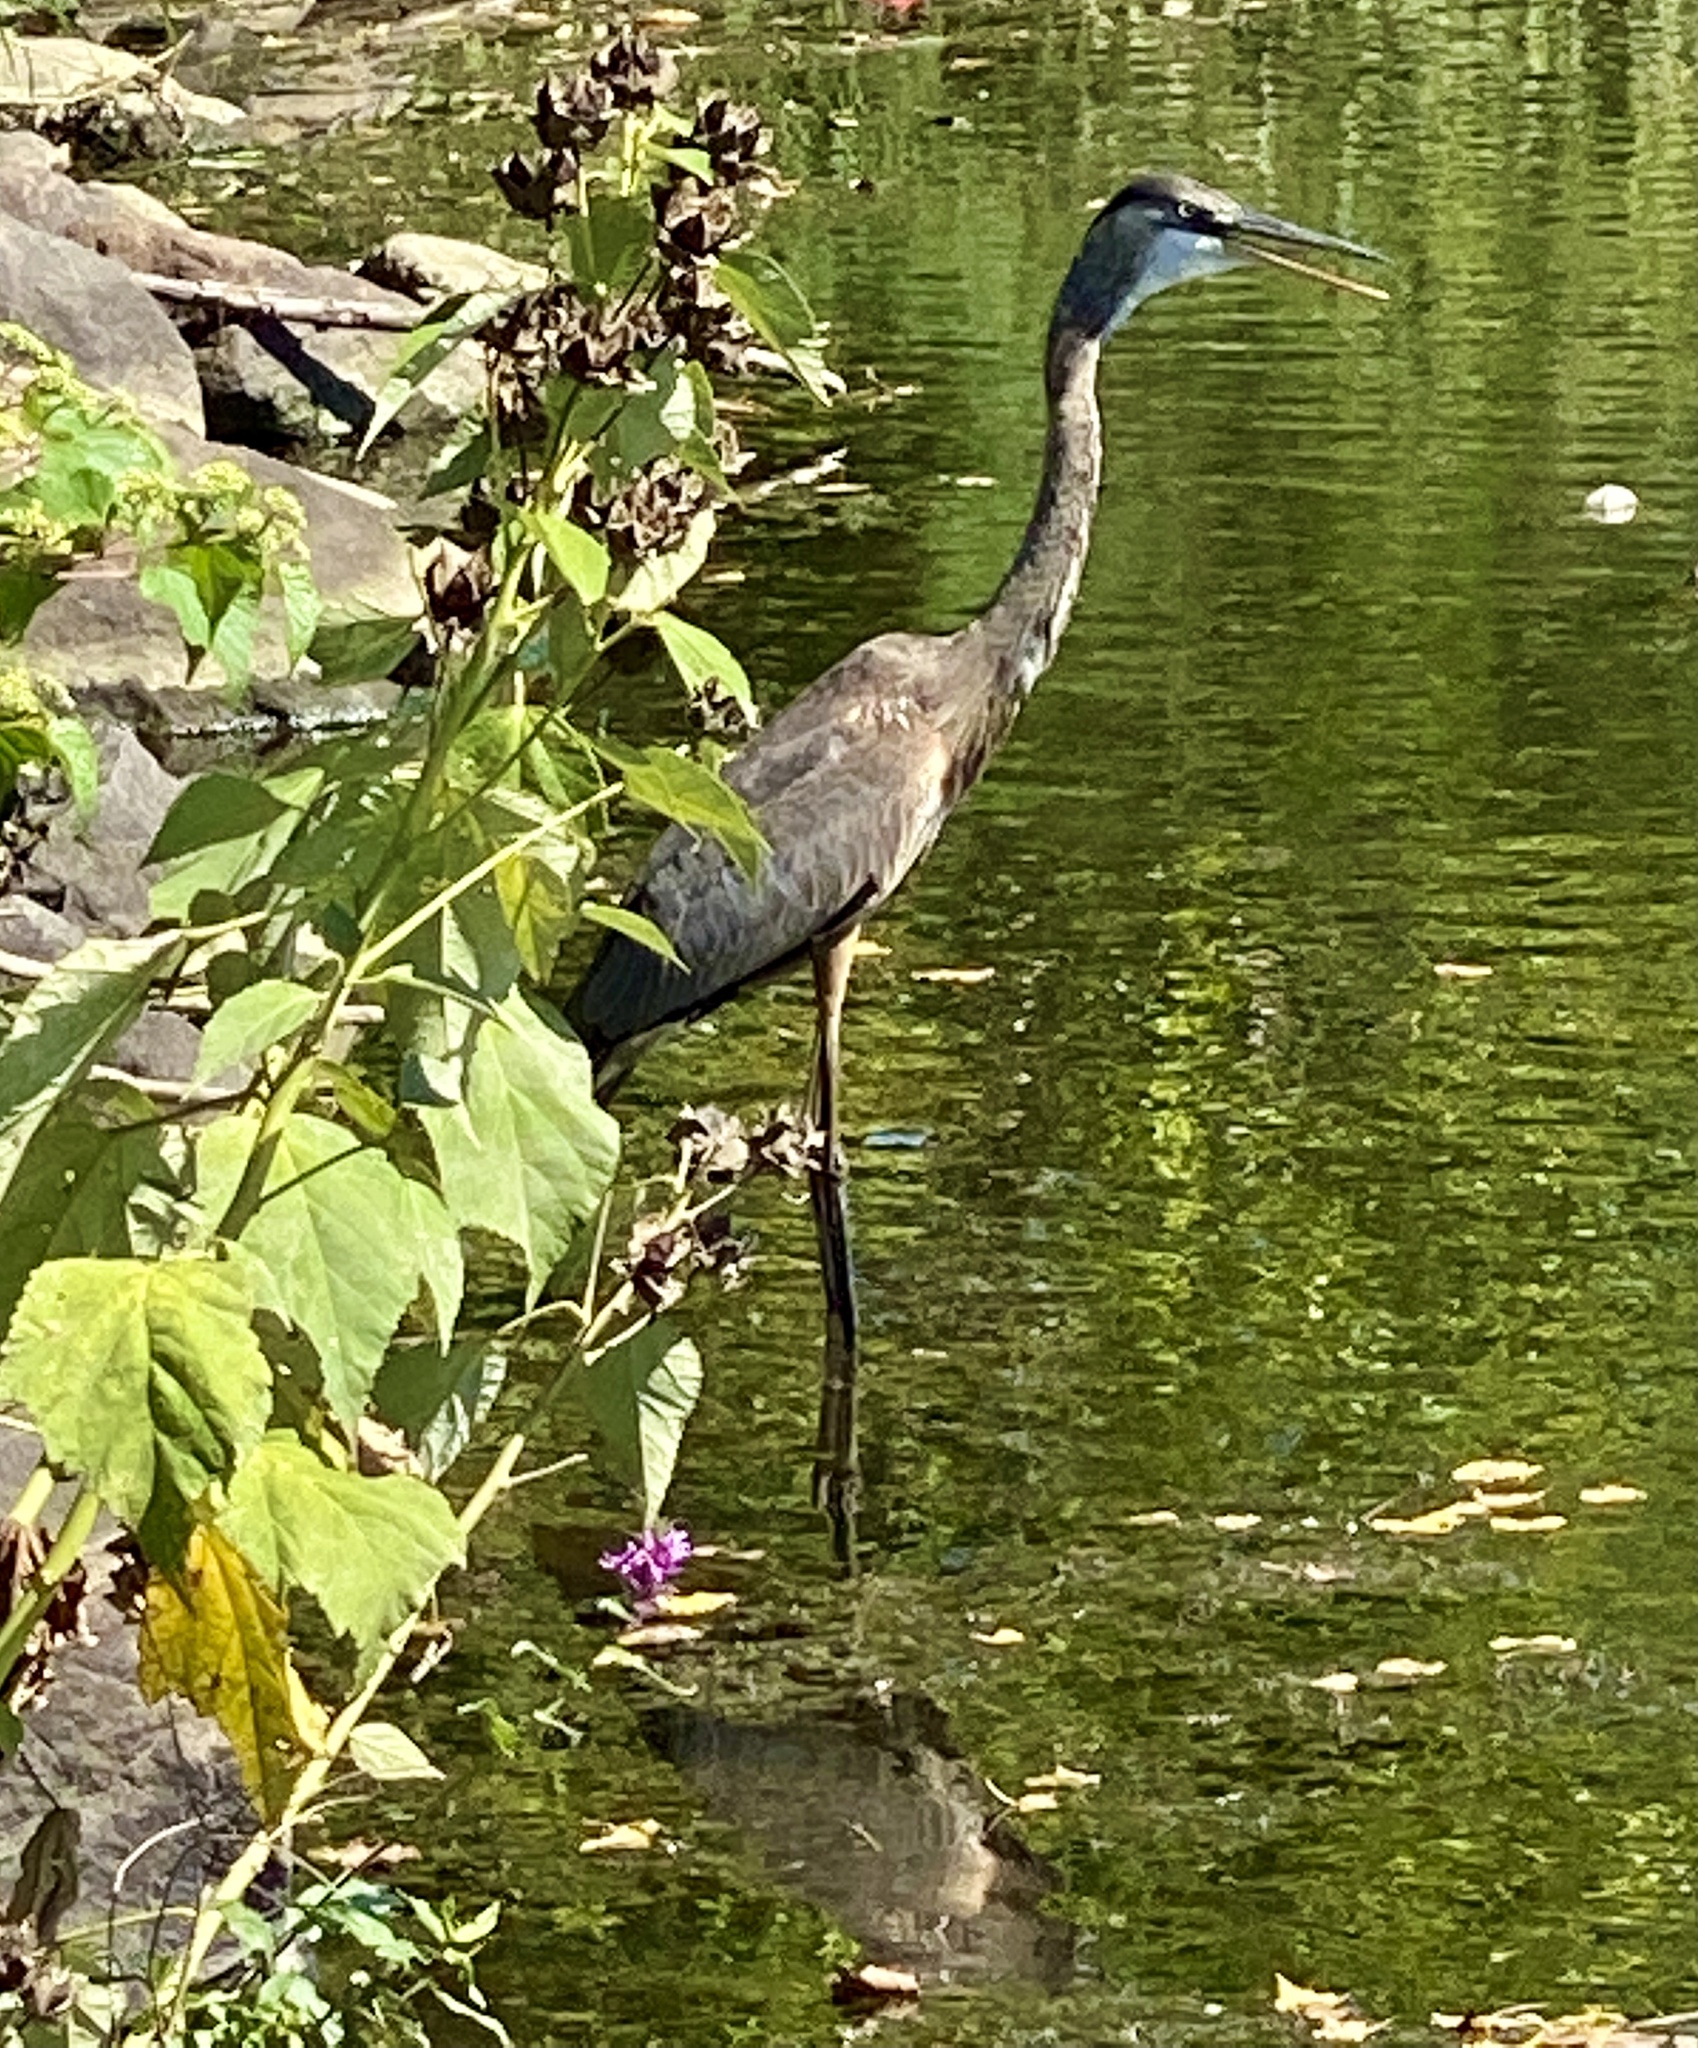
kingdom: Animalia
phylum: Chordata
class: Aves
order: Pelecaniformes
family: Ardeidae
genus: Ardea
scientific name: Ardea herodias
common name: Great blue heron
